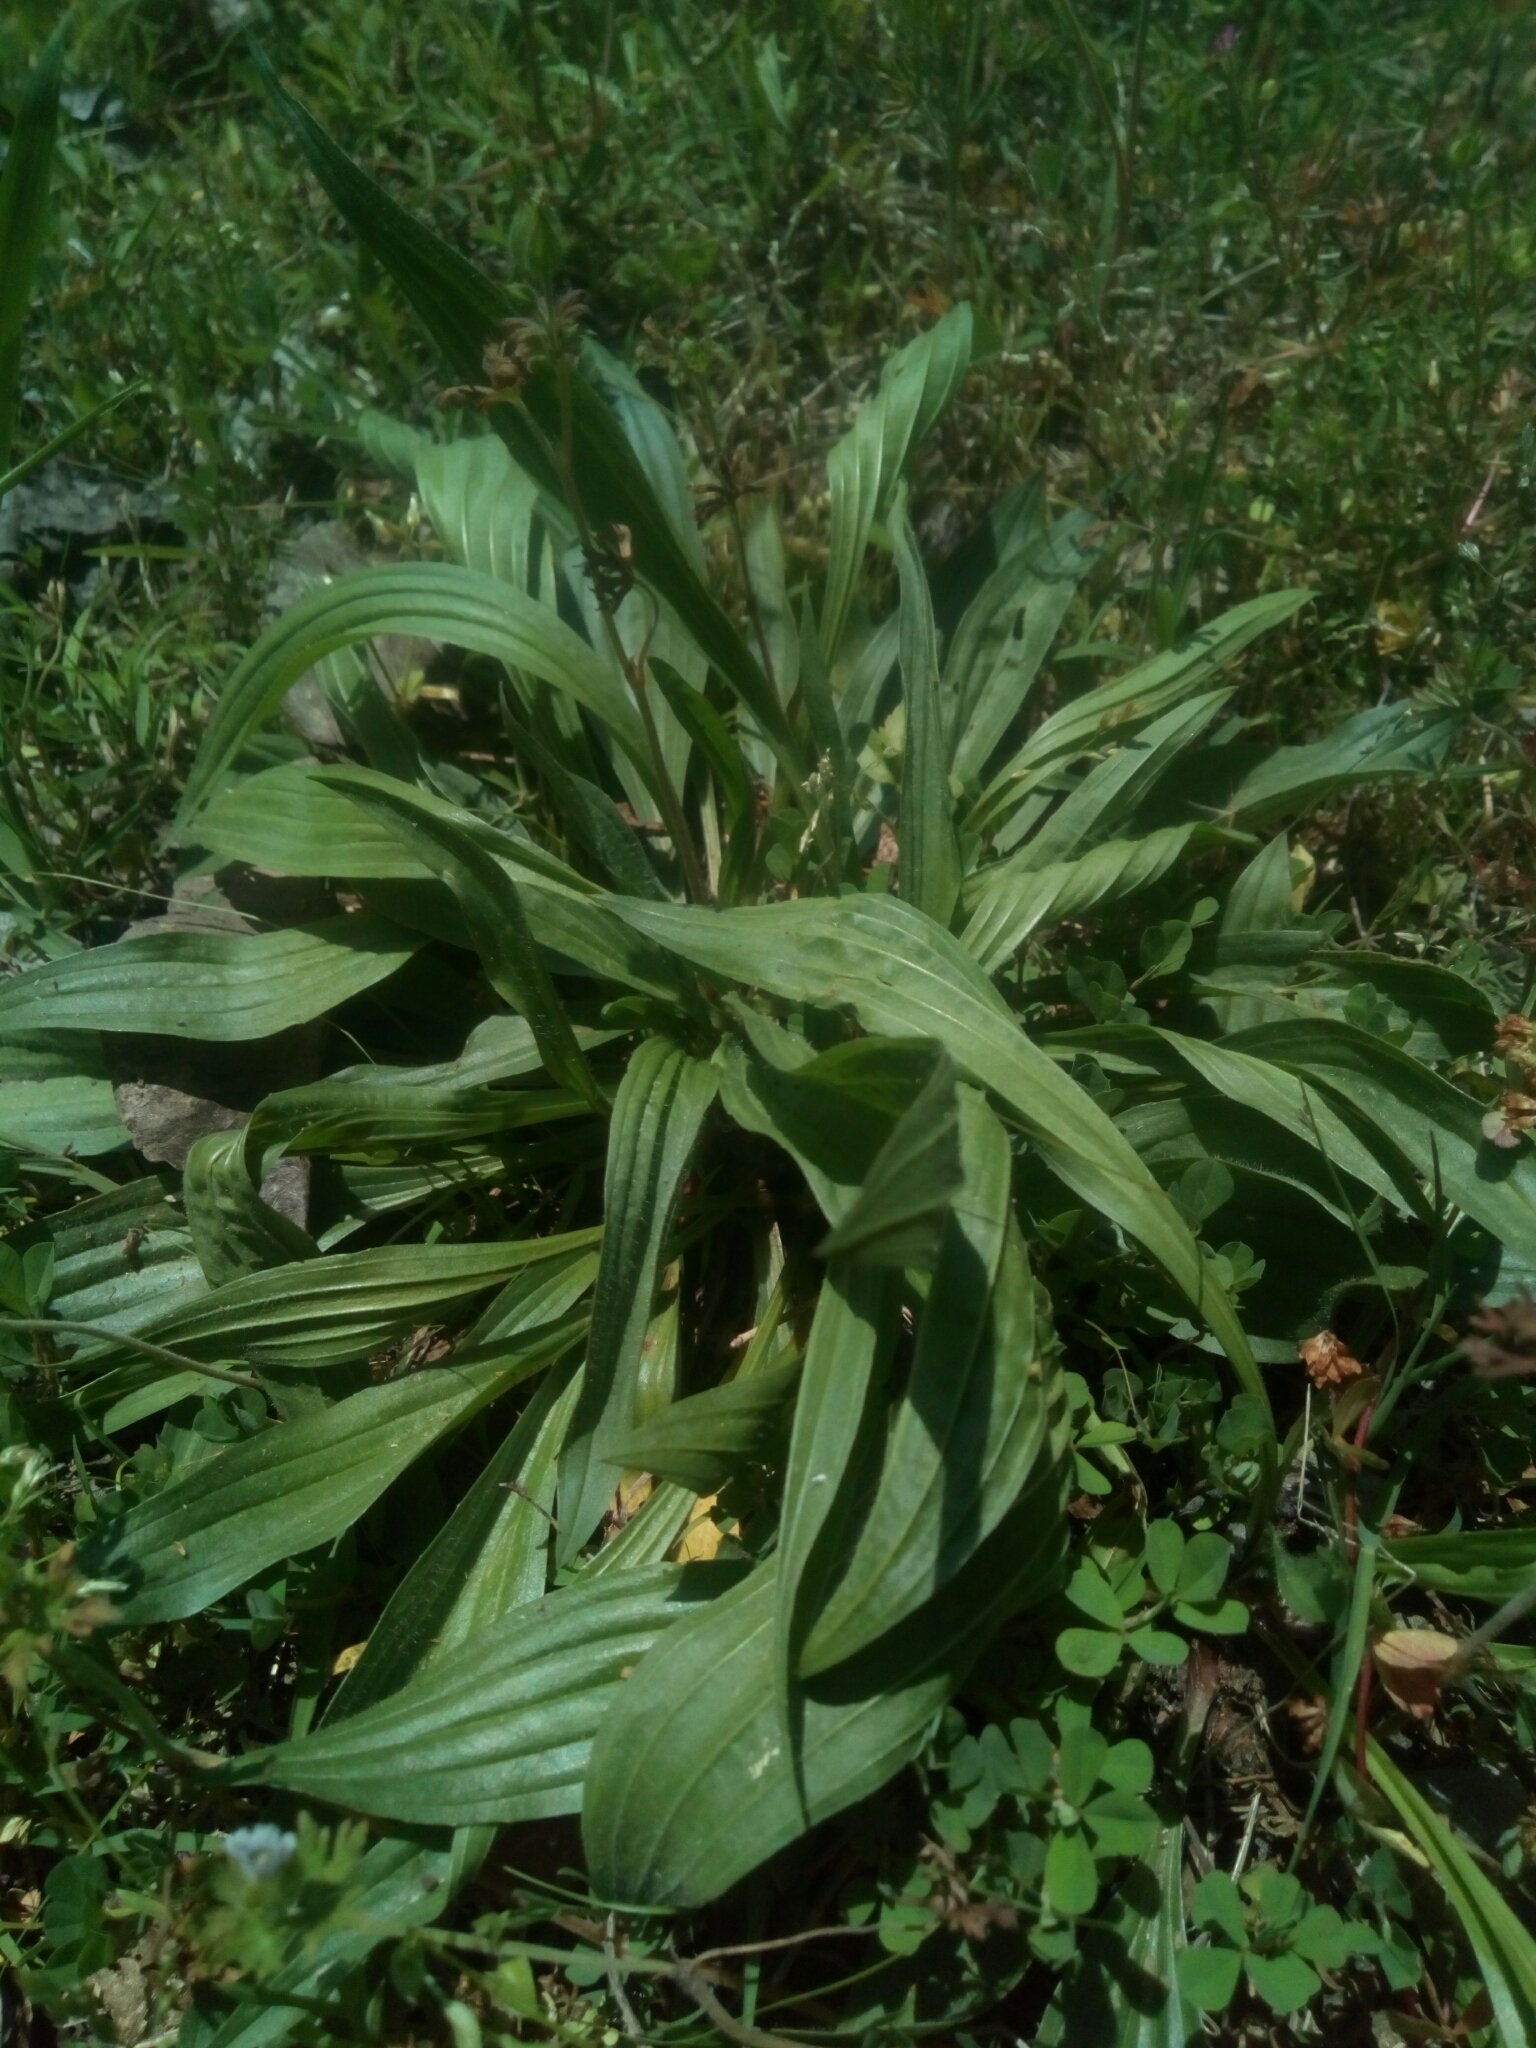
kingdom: Plantae
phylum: Tracheophyta
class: Magnoliopsida
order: Lamiales
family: Plantaginaceae
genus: Plantago
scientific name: Plantago lanceolata
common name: Ribwort plantain
